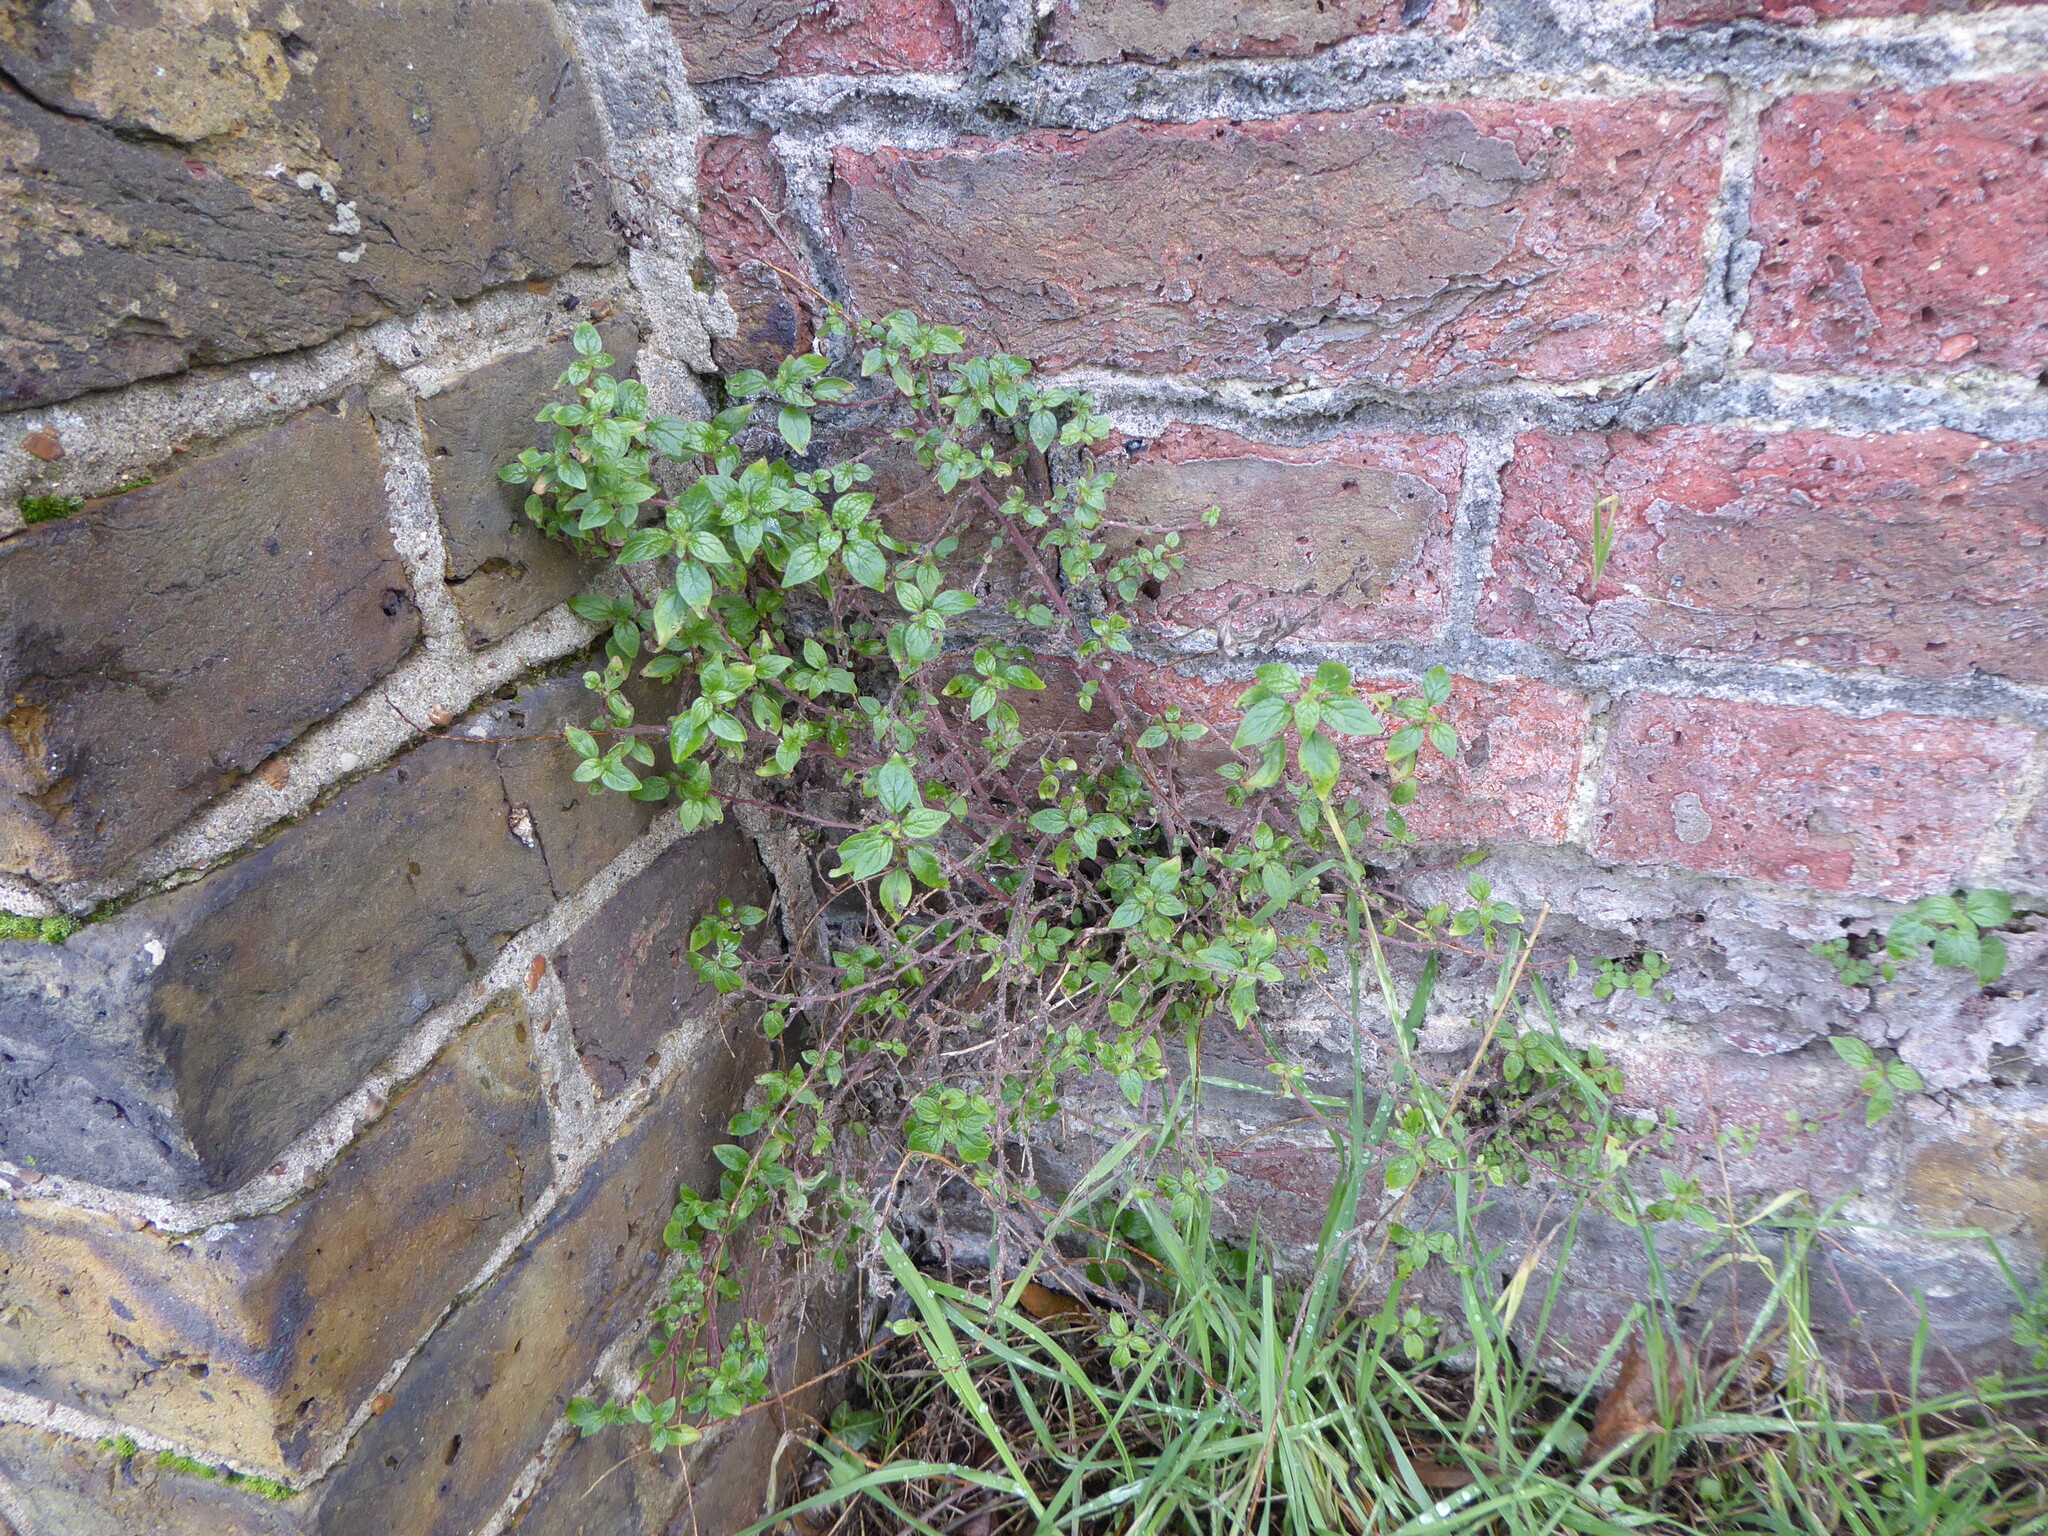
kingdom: Plantae
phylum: Tracheophyta
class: Magnoliopsida
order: Rosales
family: Urticaceae
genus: Parietaria
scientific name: Parietaria judaica
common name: Pellitory-of-the-wall
